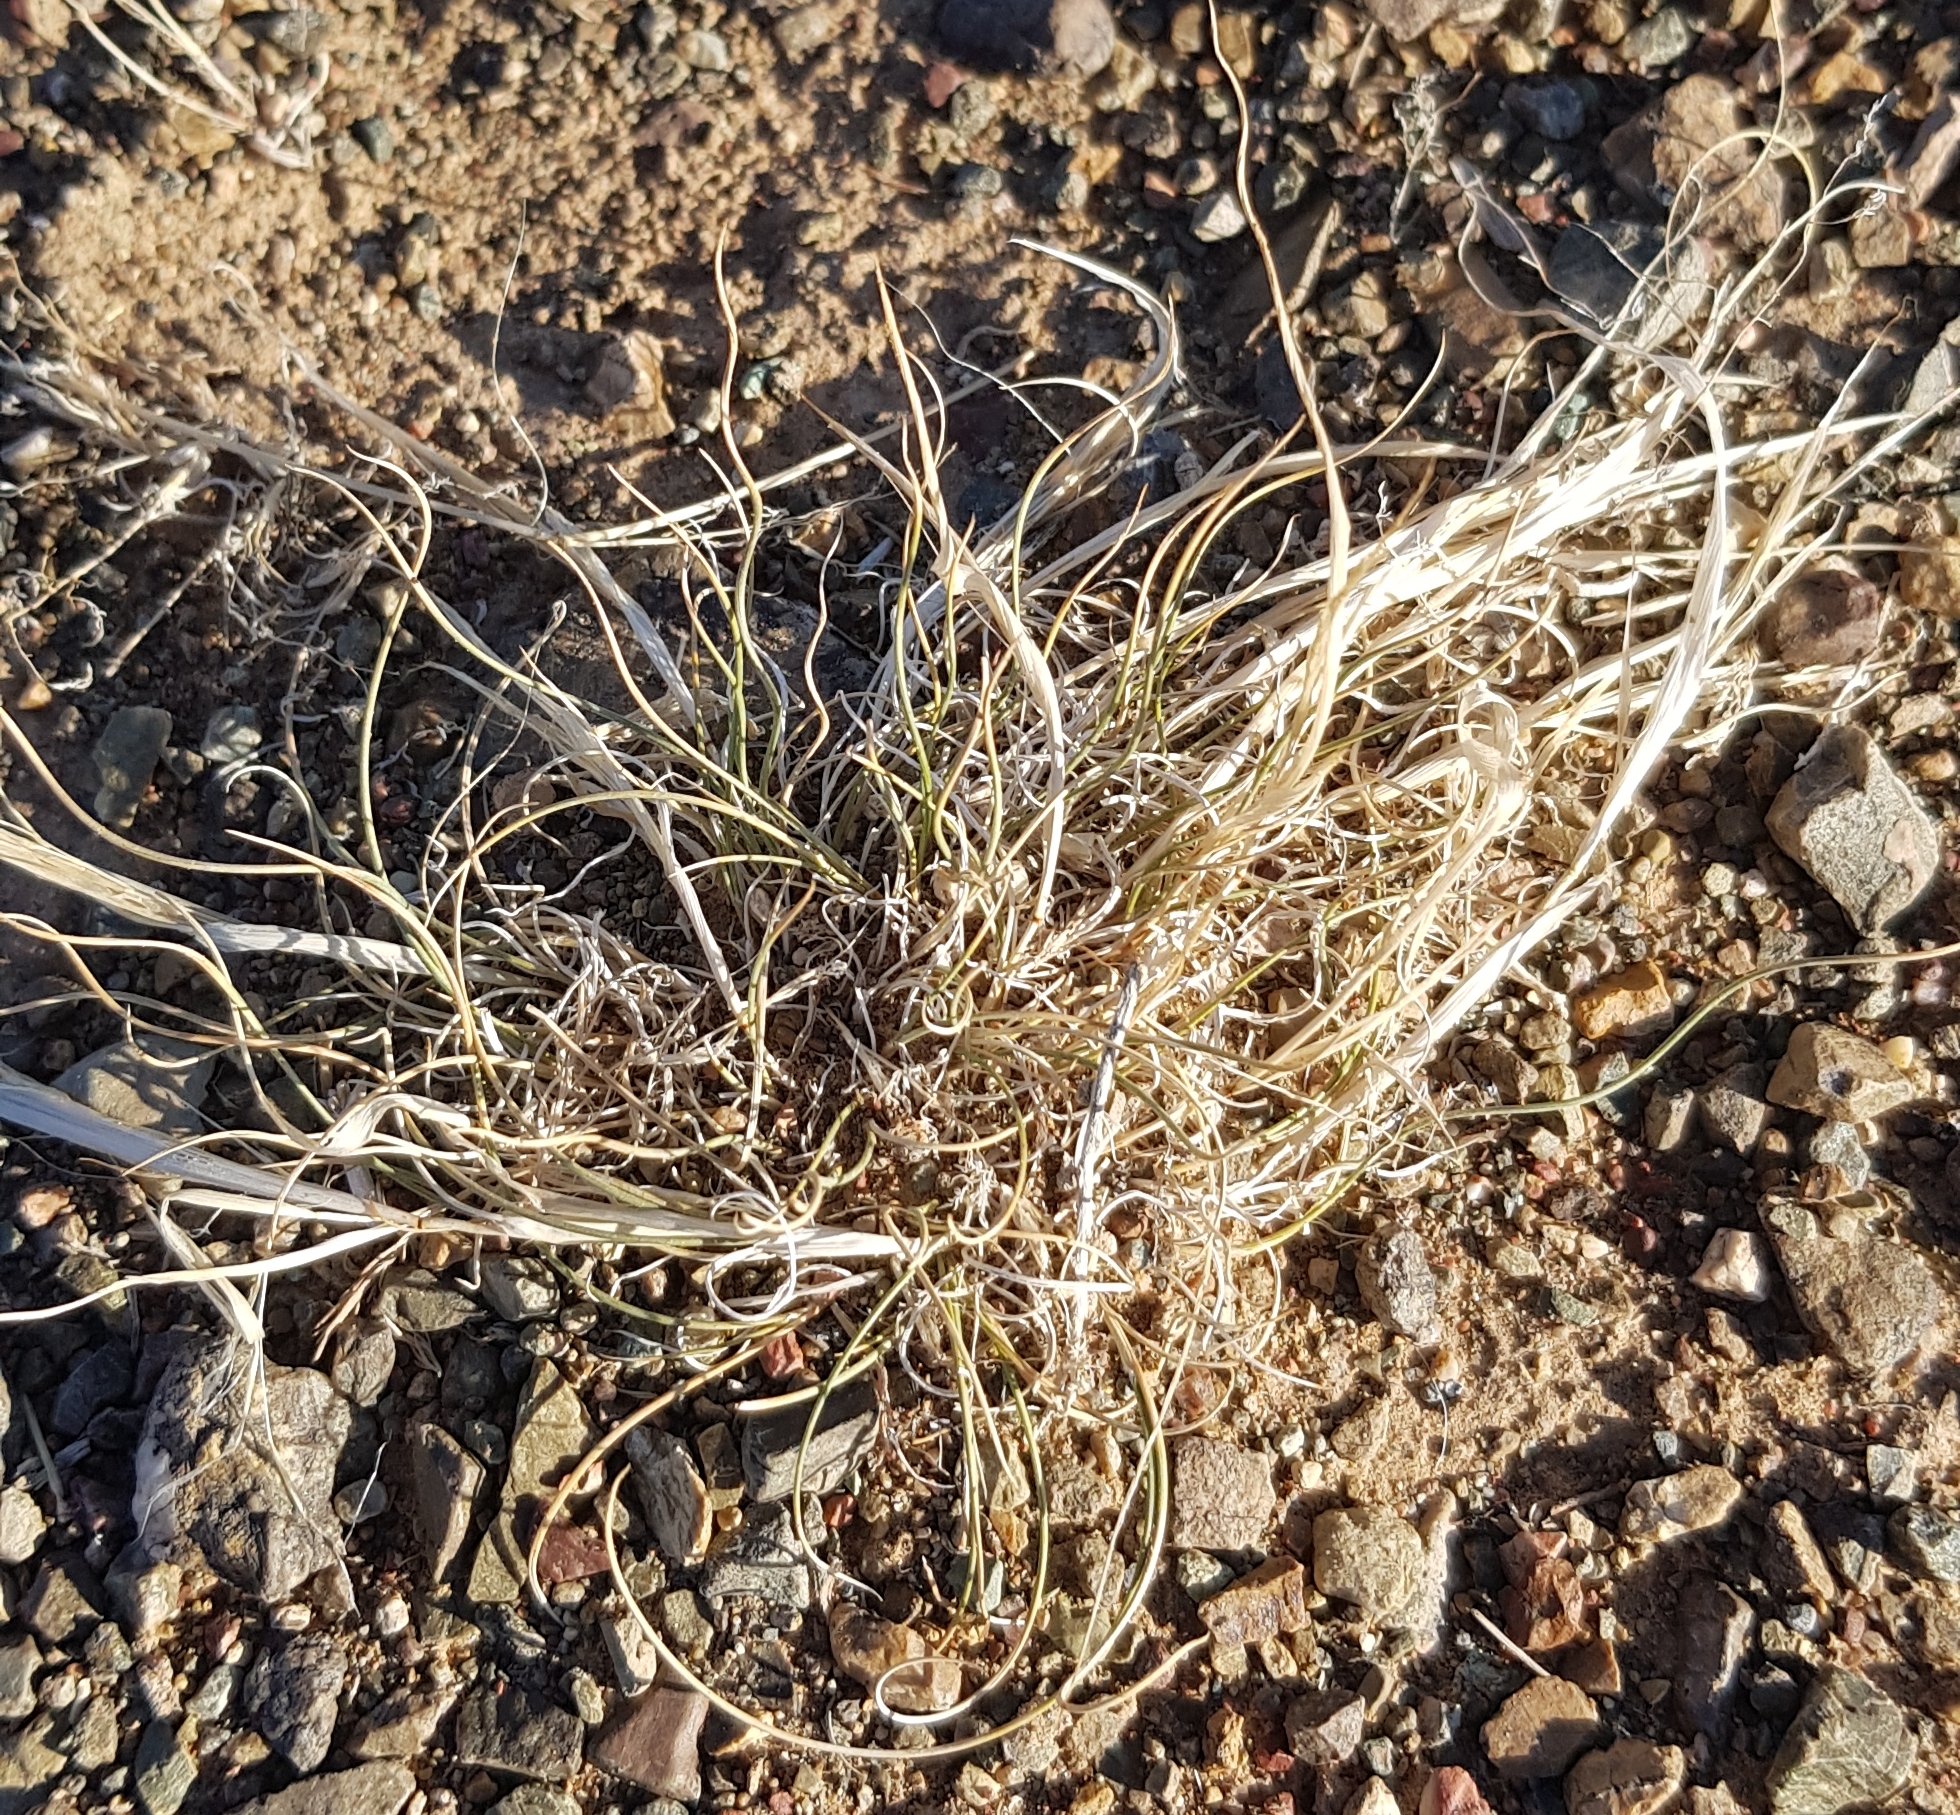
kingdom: Plantae
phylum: Tracheophyta
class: Liliopsida
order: Poales
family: Poaceae
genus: Stipa
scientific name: Stipa glareosa
